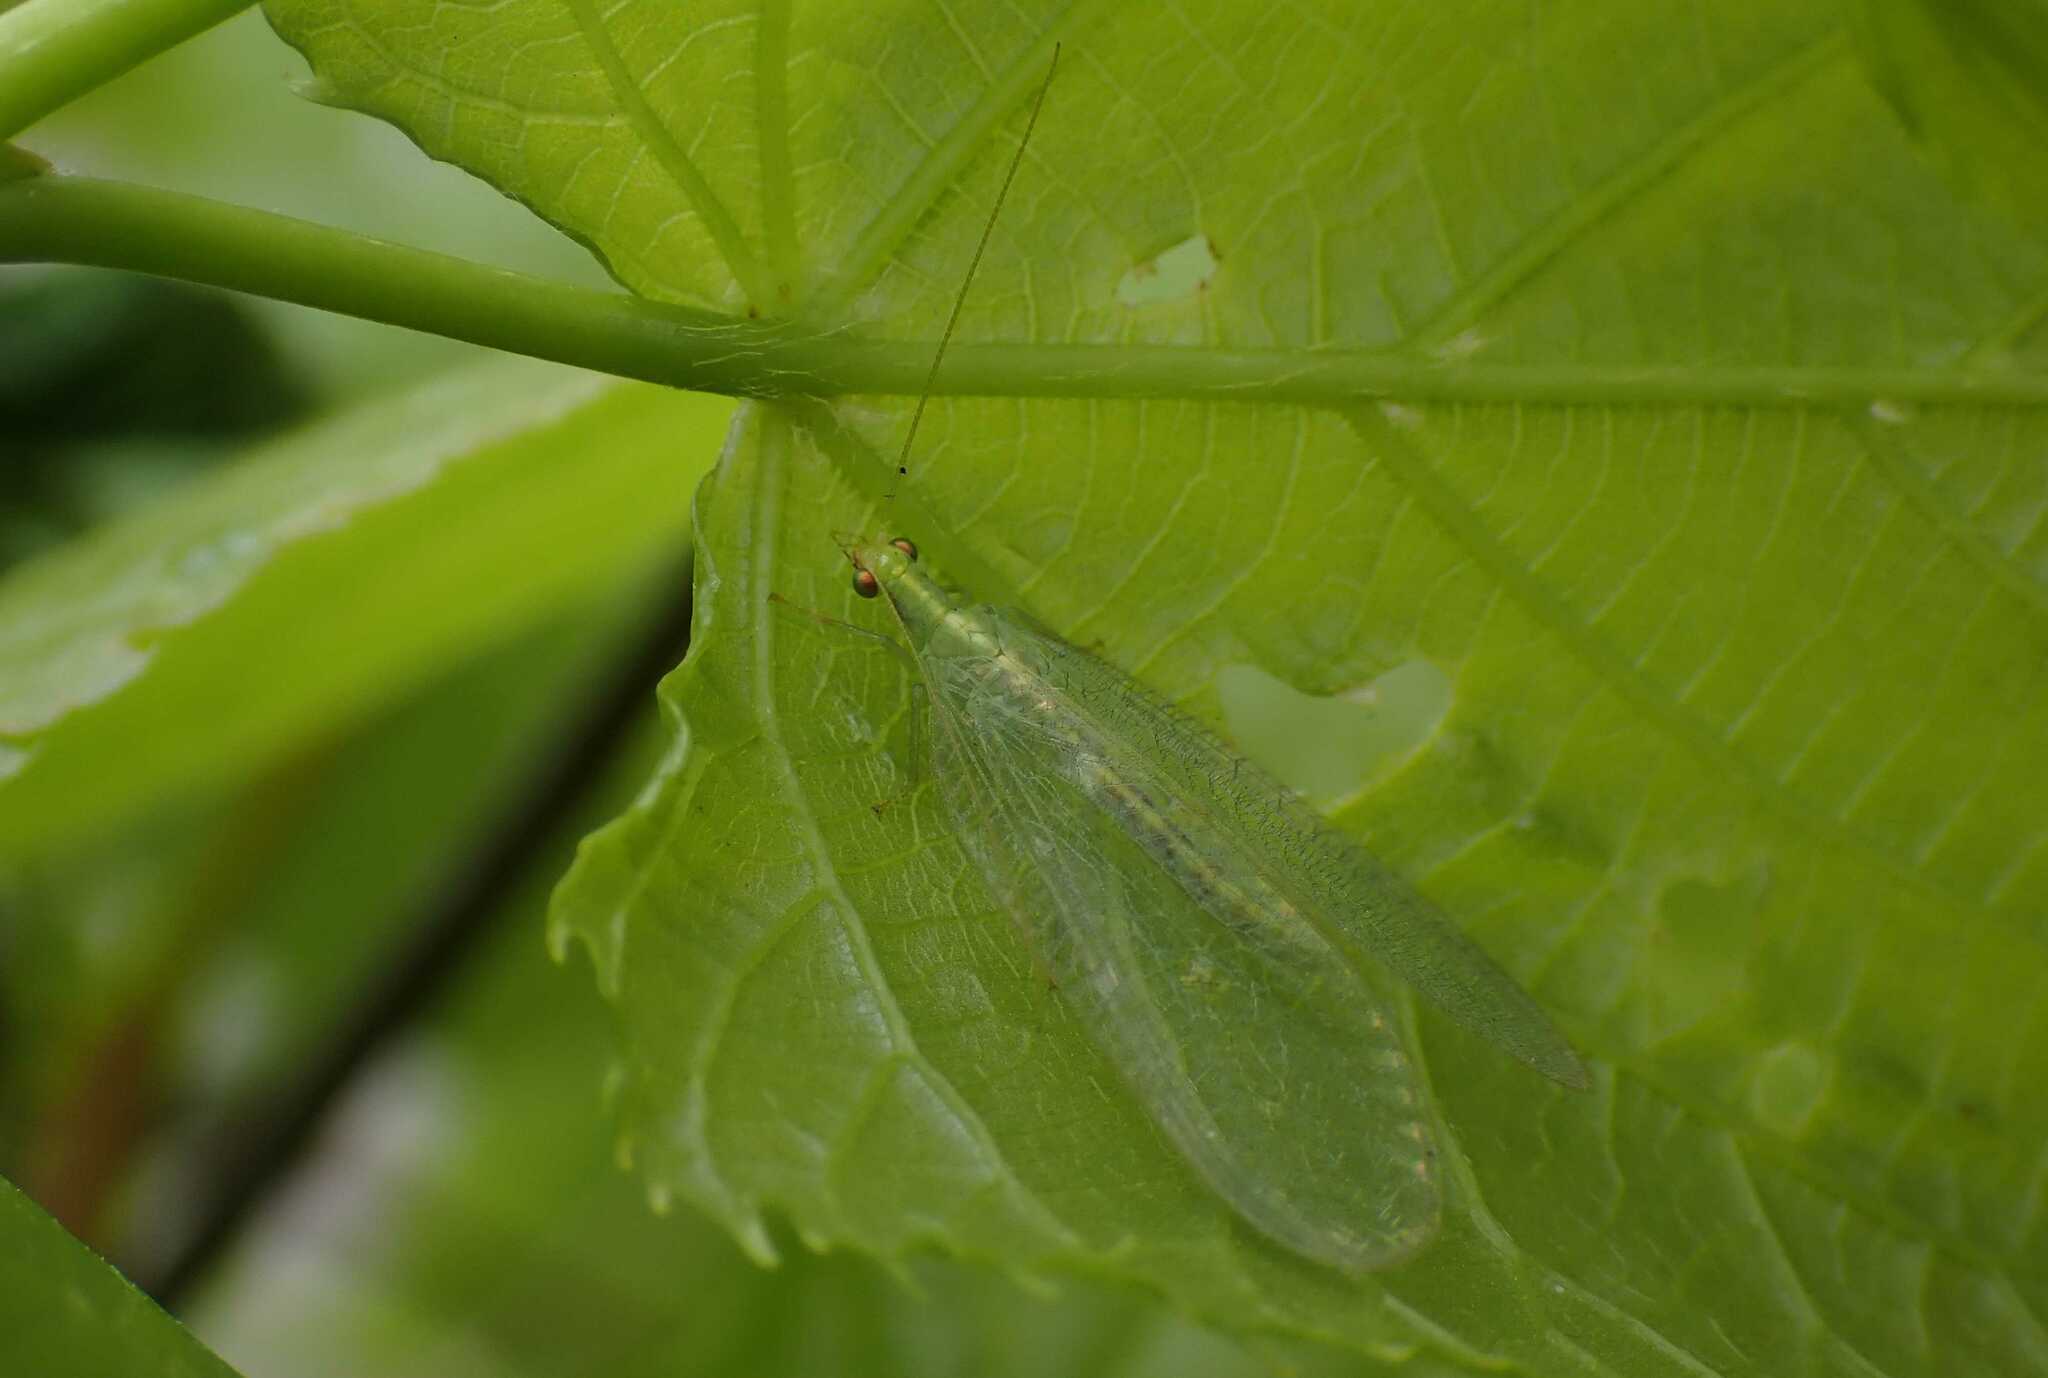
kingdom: Animalia
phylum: Arthropoda
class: Insecta
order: Neuroptera
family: Chrysopidae
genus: Chrysoperla
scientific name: Chrysoperla
